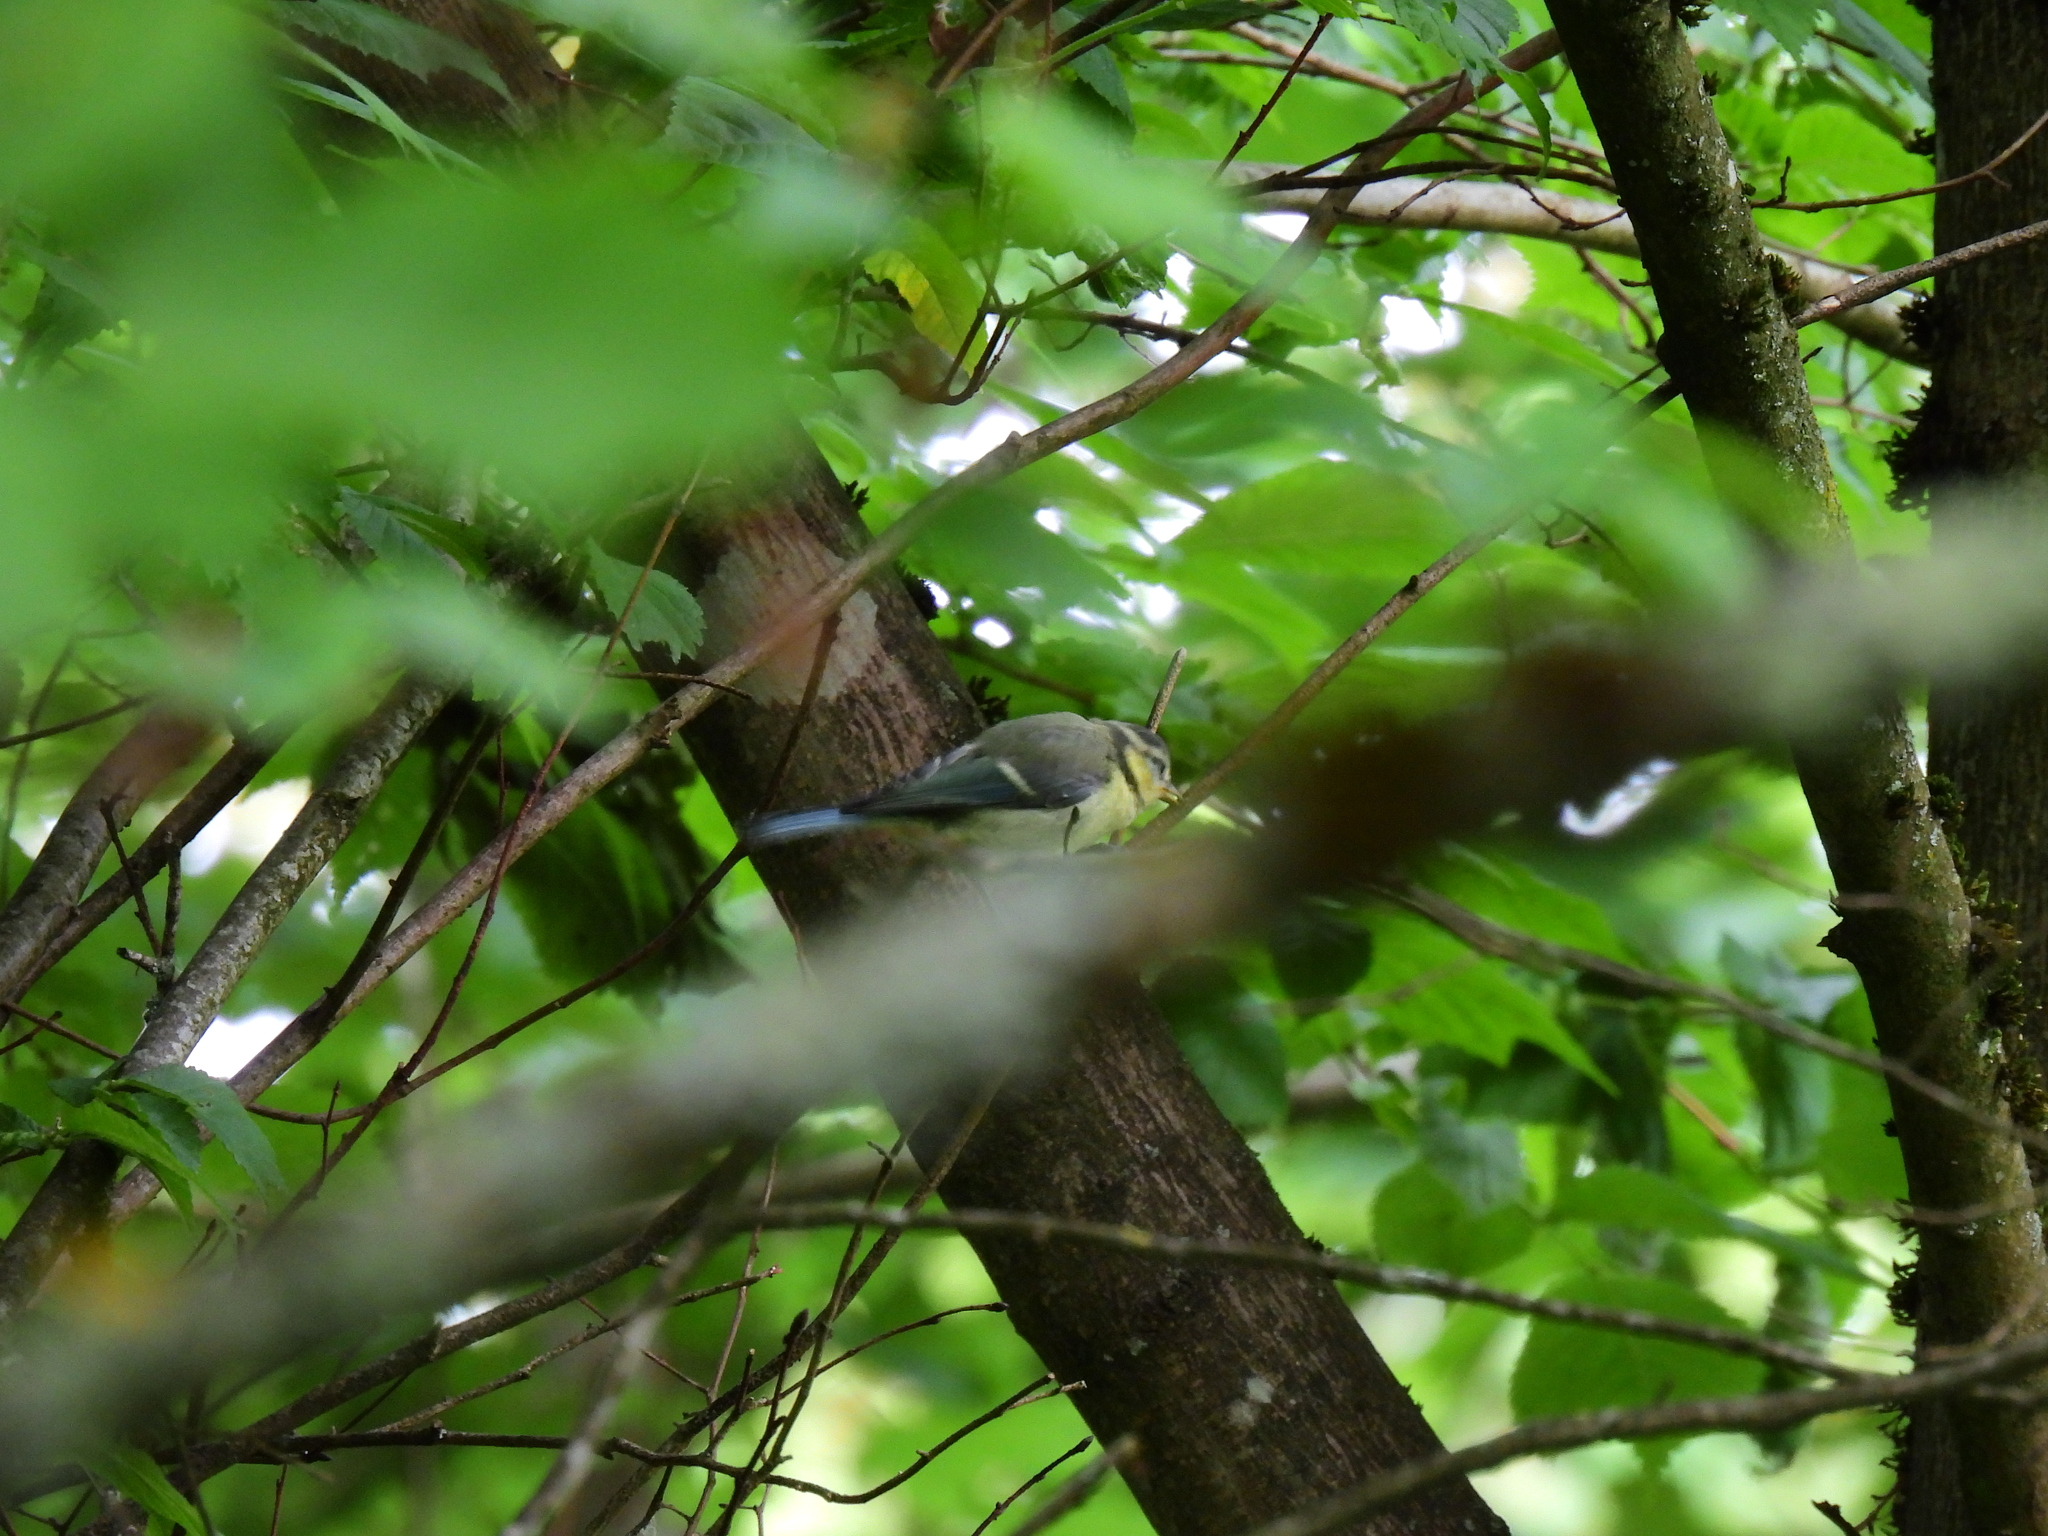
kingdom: Animalia
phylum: Chordata
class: Aves
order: Passeriformes
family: Paridae
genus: Cyanistes
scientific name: Cyanistes caeruleus
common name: Eurasian blue tit
